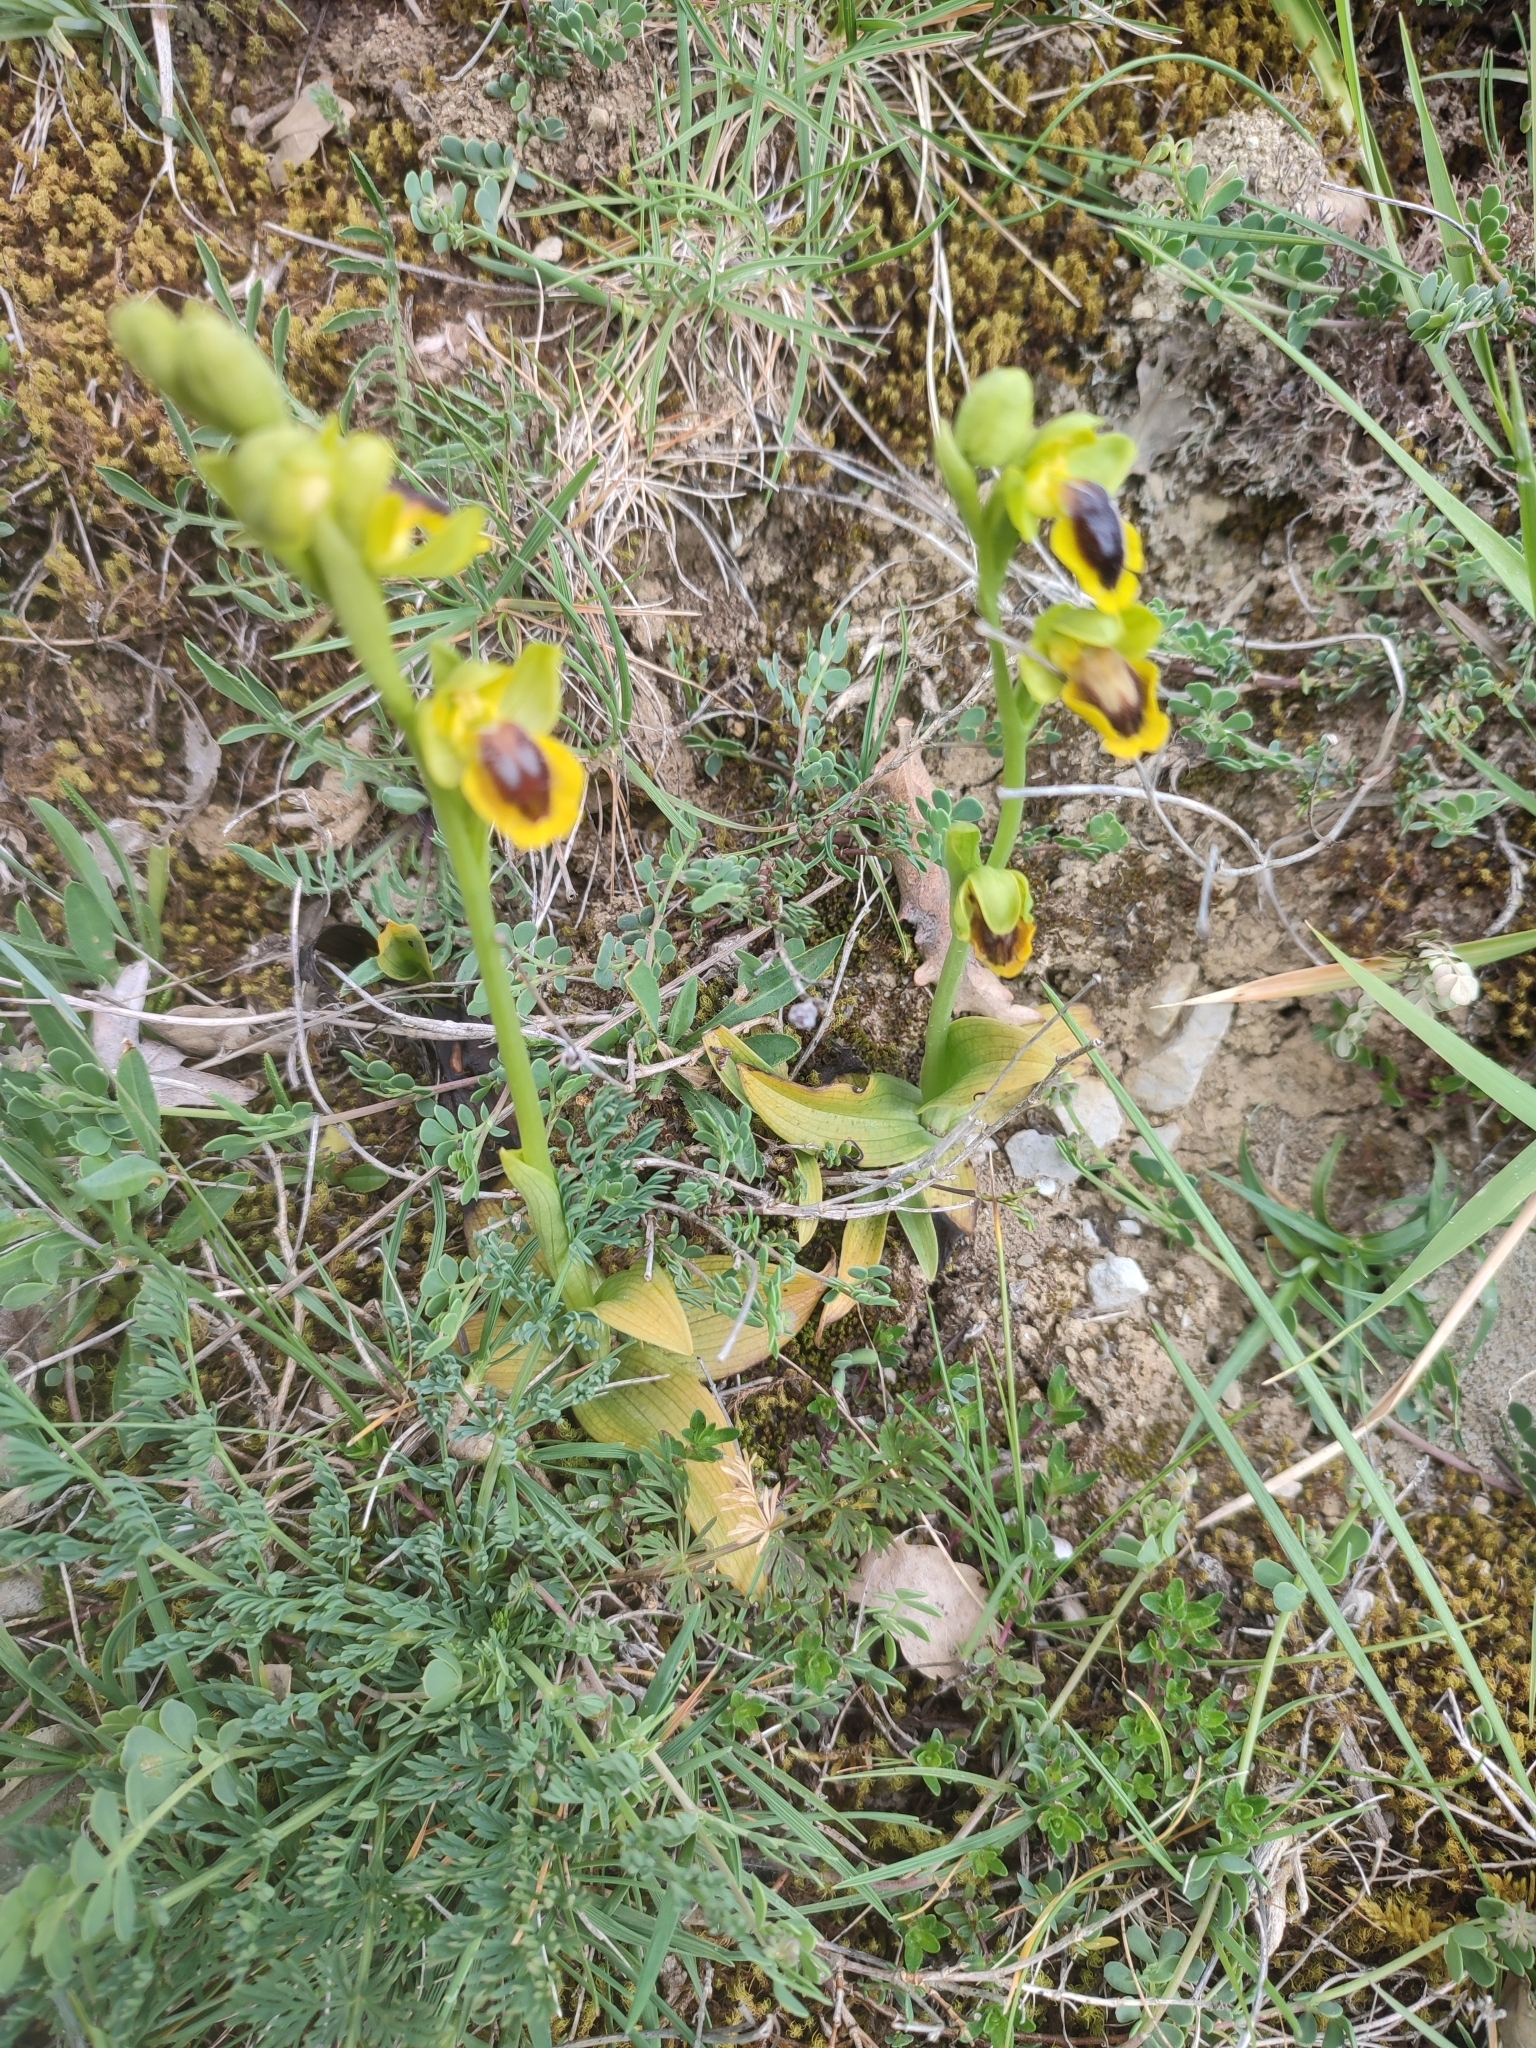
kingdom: Plantae
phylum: Tracheophyta
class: Liliopsida
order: Asparagales
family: Orchidaceae
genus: Ophrys
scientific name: Ophrys lutea
